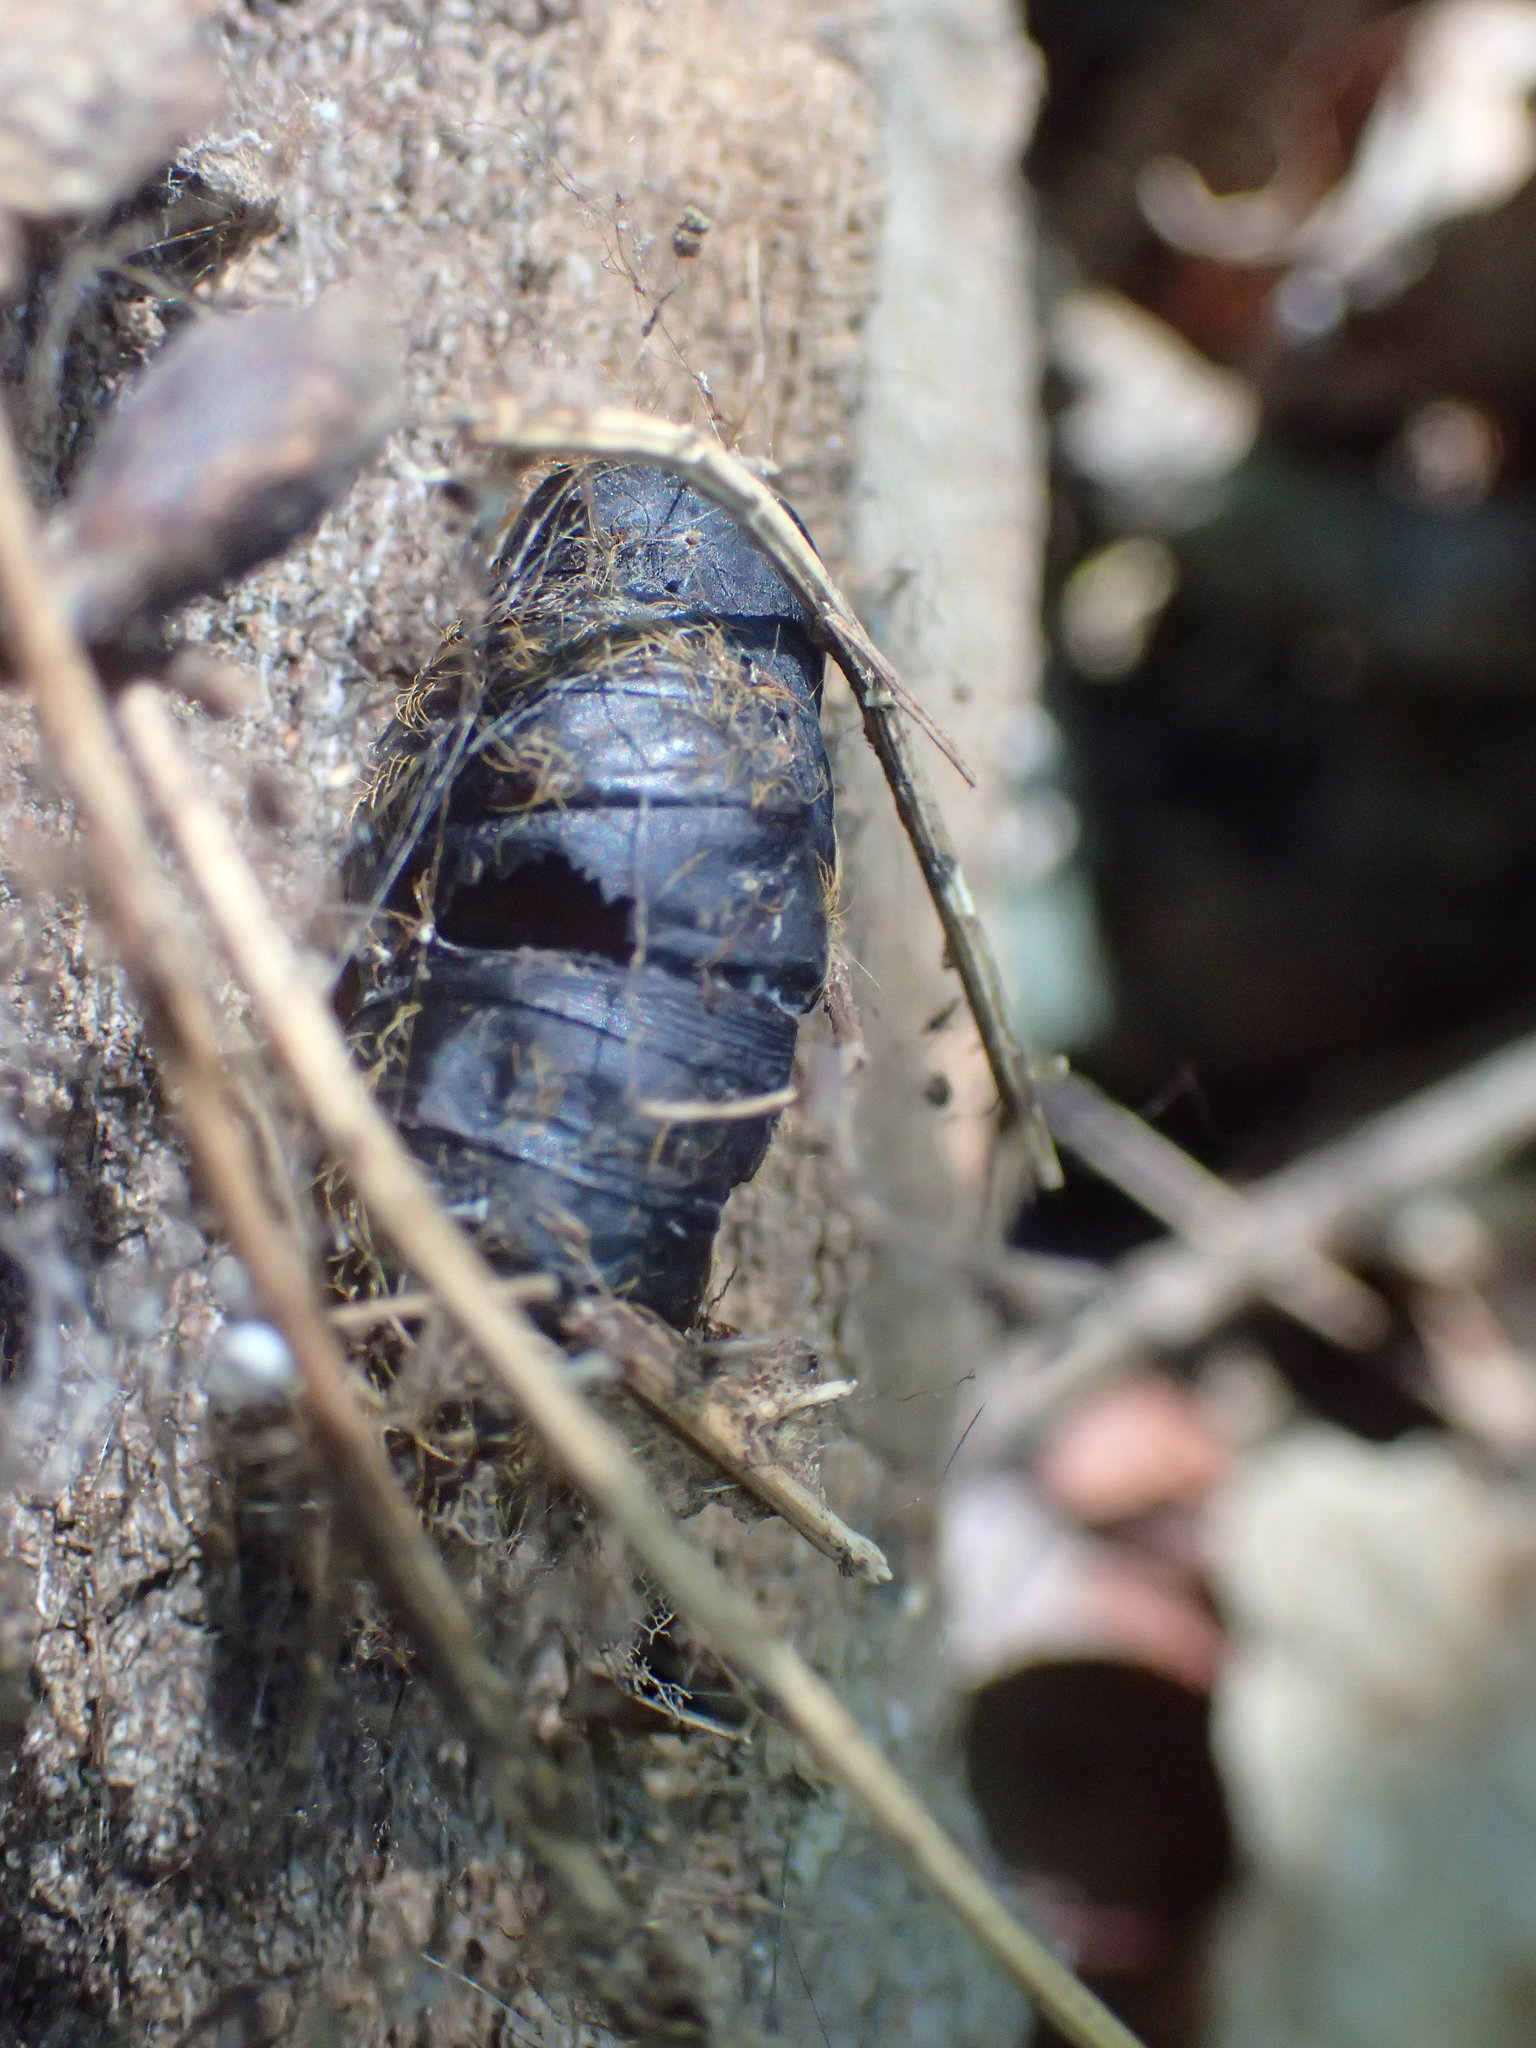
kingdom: Animalia
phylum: Arthropoda
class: Insecta
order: Lepidoptera
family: Erebidae
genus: Lymantria
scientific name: Lymantria dispar
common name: Gypsy moth
